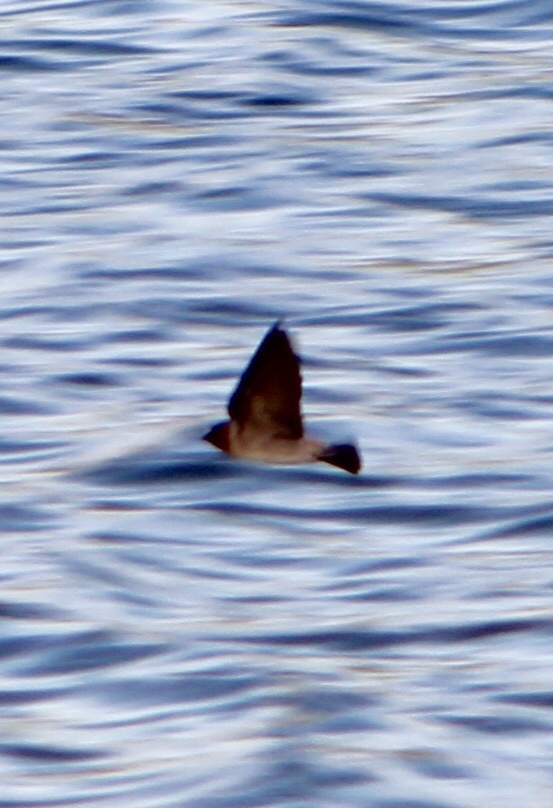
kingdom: Animalia
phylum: Chordata
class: Aves
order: Passeriformes
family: Hirundinidae
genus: Petrochelidon
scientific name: Petrochelidon pyrrhonota
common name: American cliff swallow
